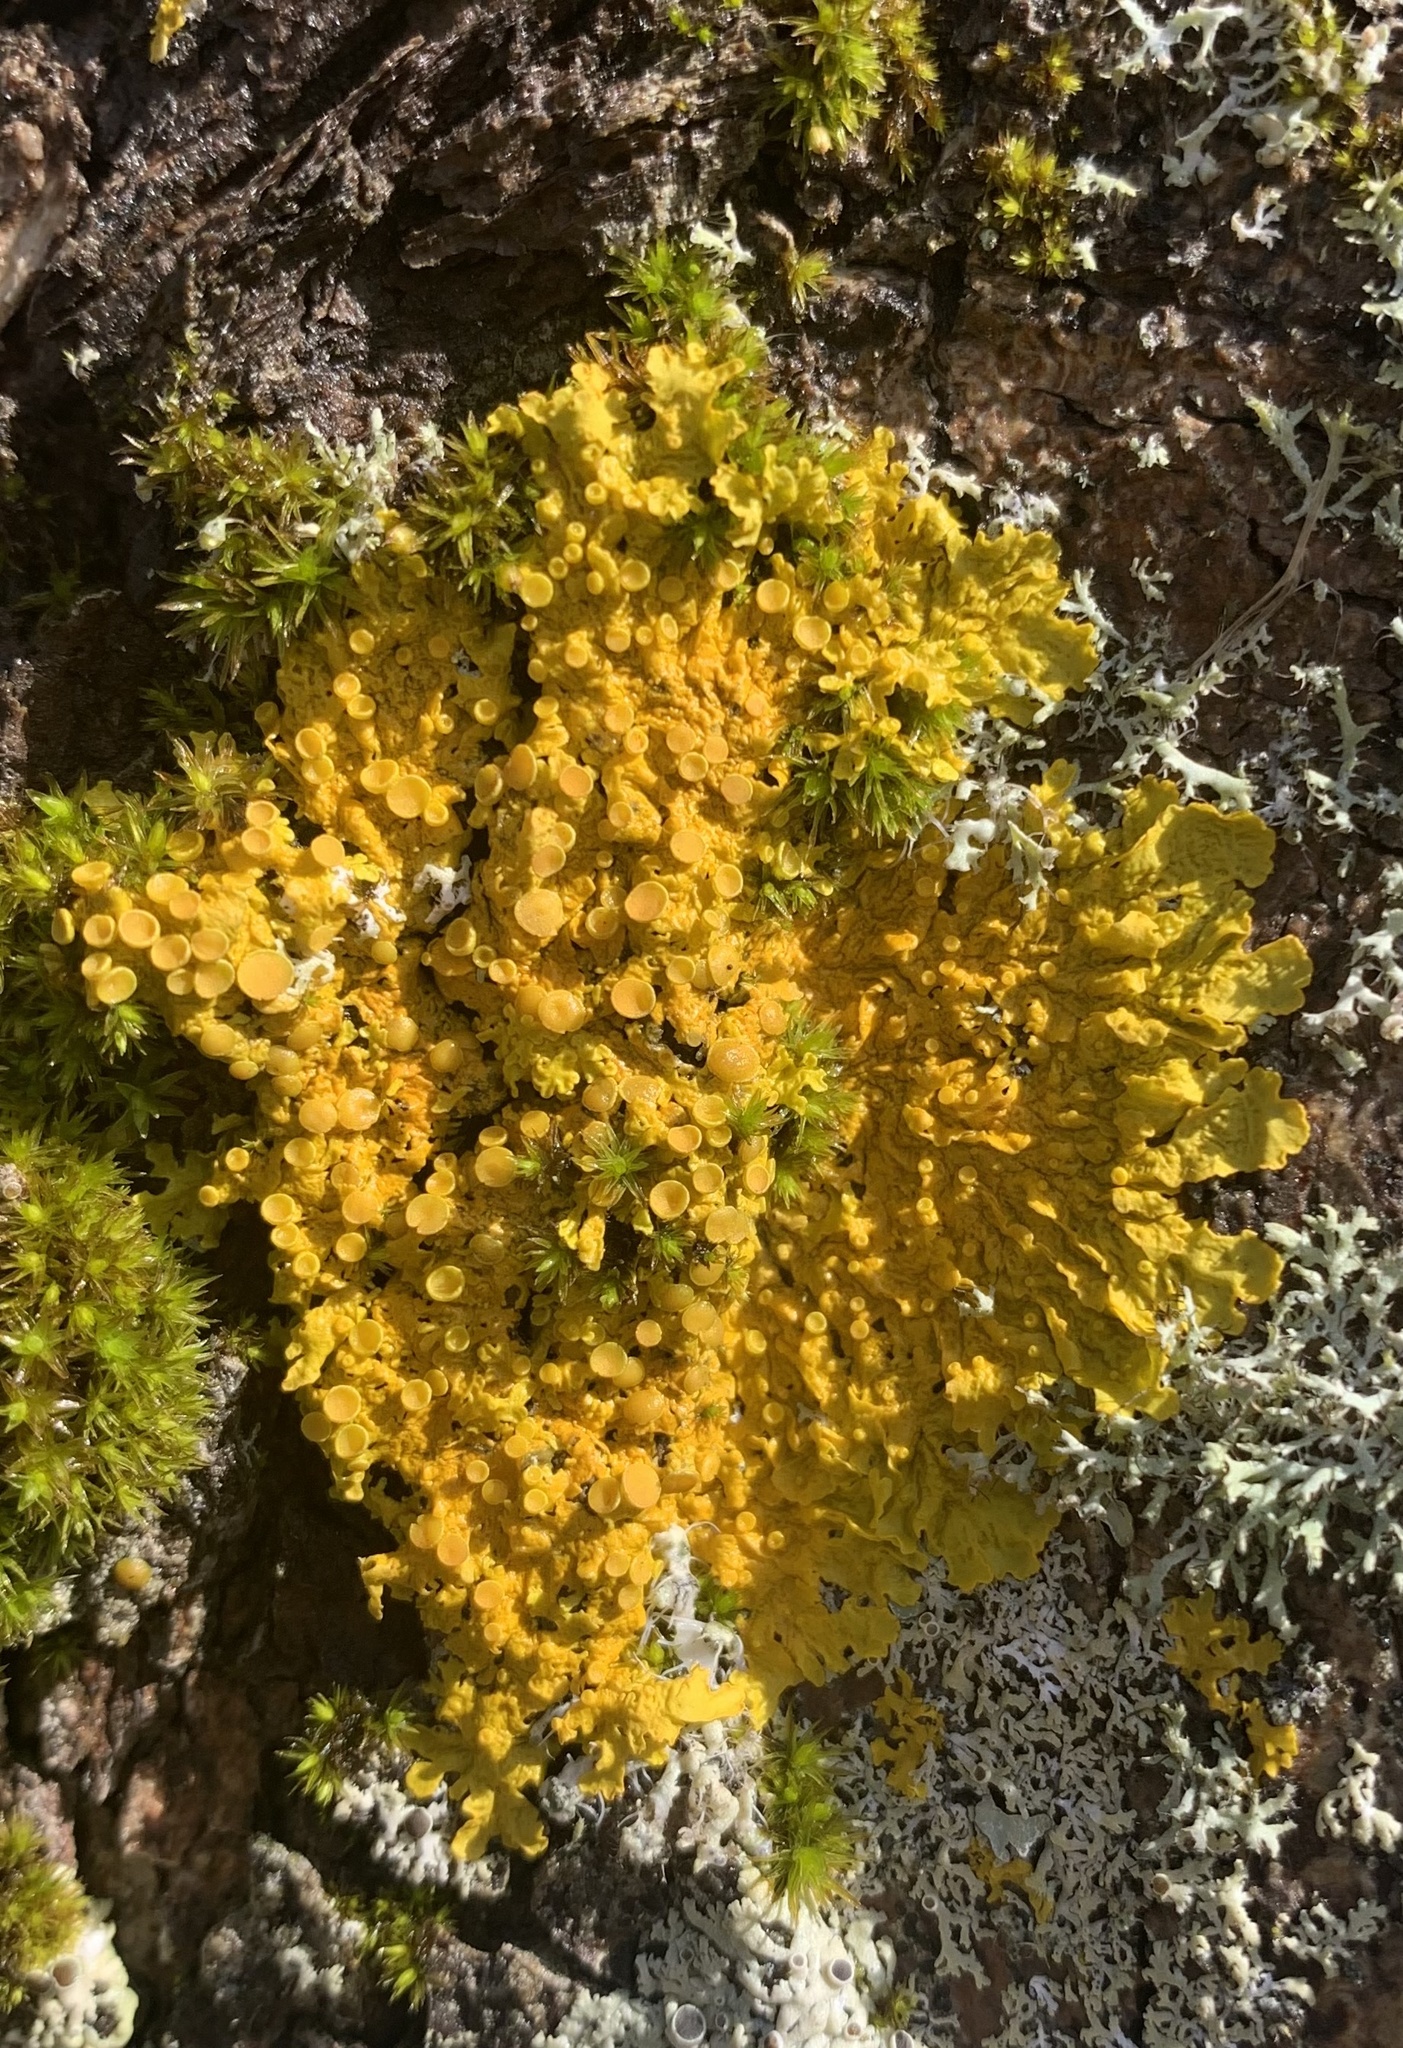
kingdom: Fungi
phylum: Ascomycota
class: Lecanoromycetes
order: Teloschistales
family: Teloschistaceae
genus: Xanthoria
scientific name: Xanthoria parietina
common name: Common orange lichen
